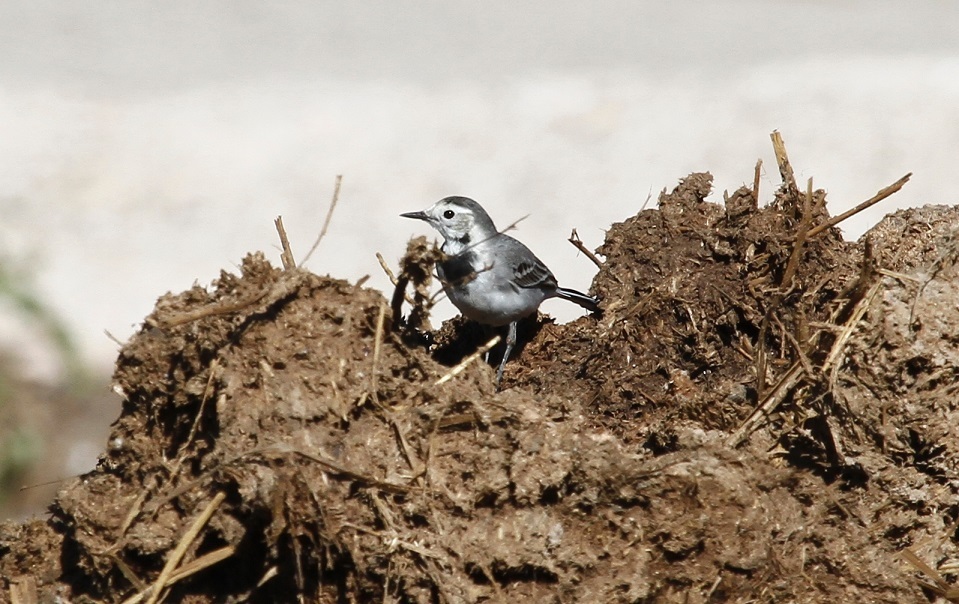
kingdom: Animalia
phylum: Chordata
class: Aves
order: Passeriformes
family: Motacillidae
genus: Motacilla
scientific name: Motacilla alba
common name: White wagtail
